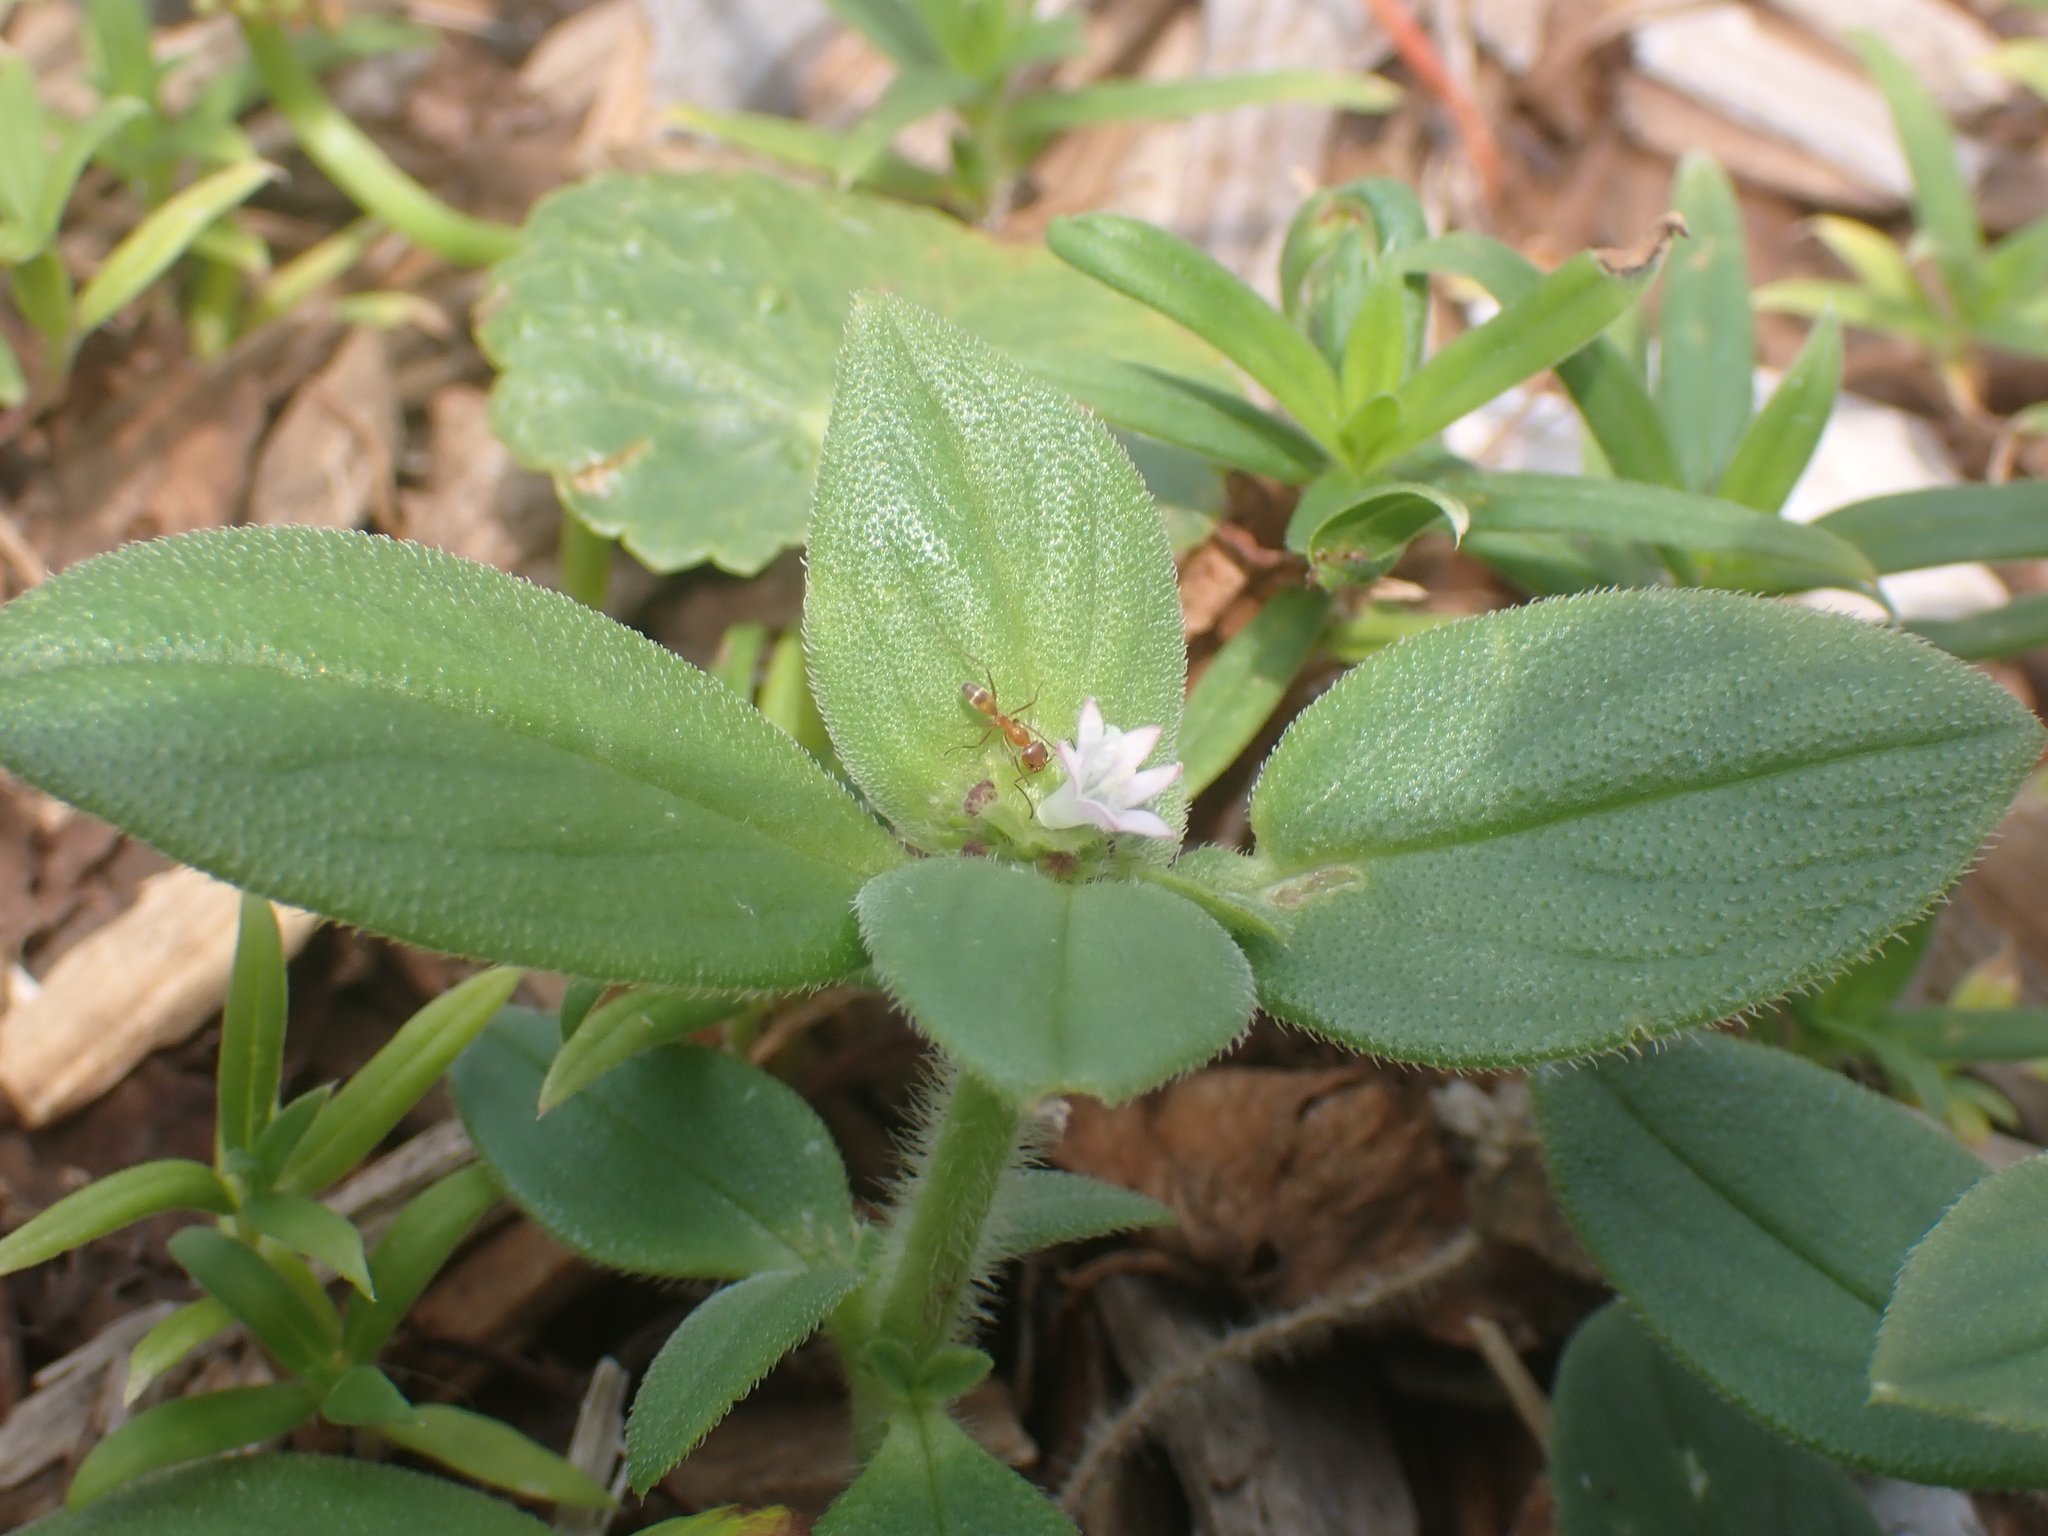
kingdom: Animalia
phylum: Arthropoda
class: Insecta
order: Hymenoptera
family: Formicidae
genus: Dorymyrmex
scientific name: Dorymyrmex bureni
